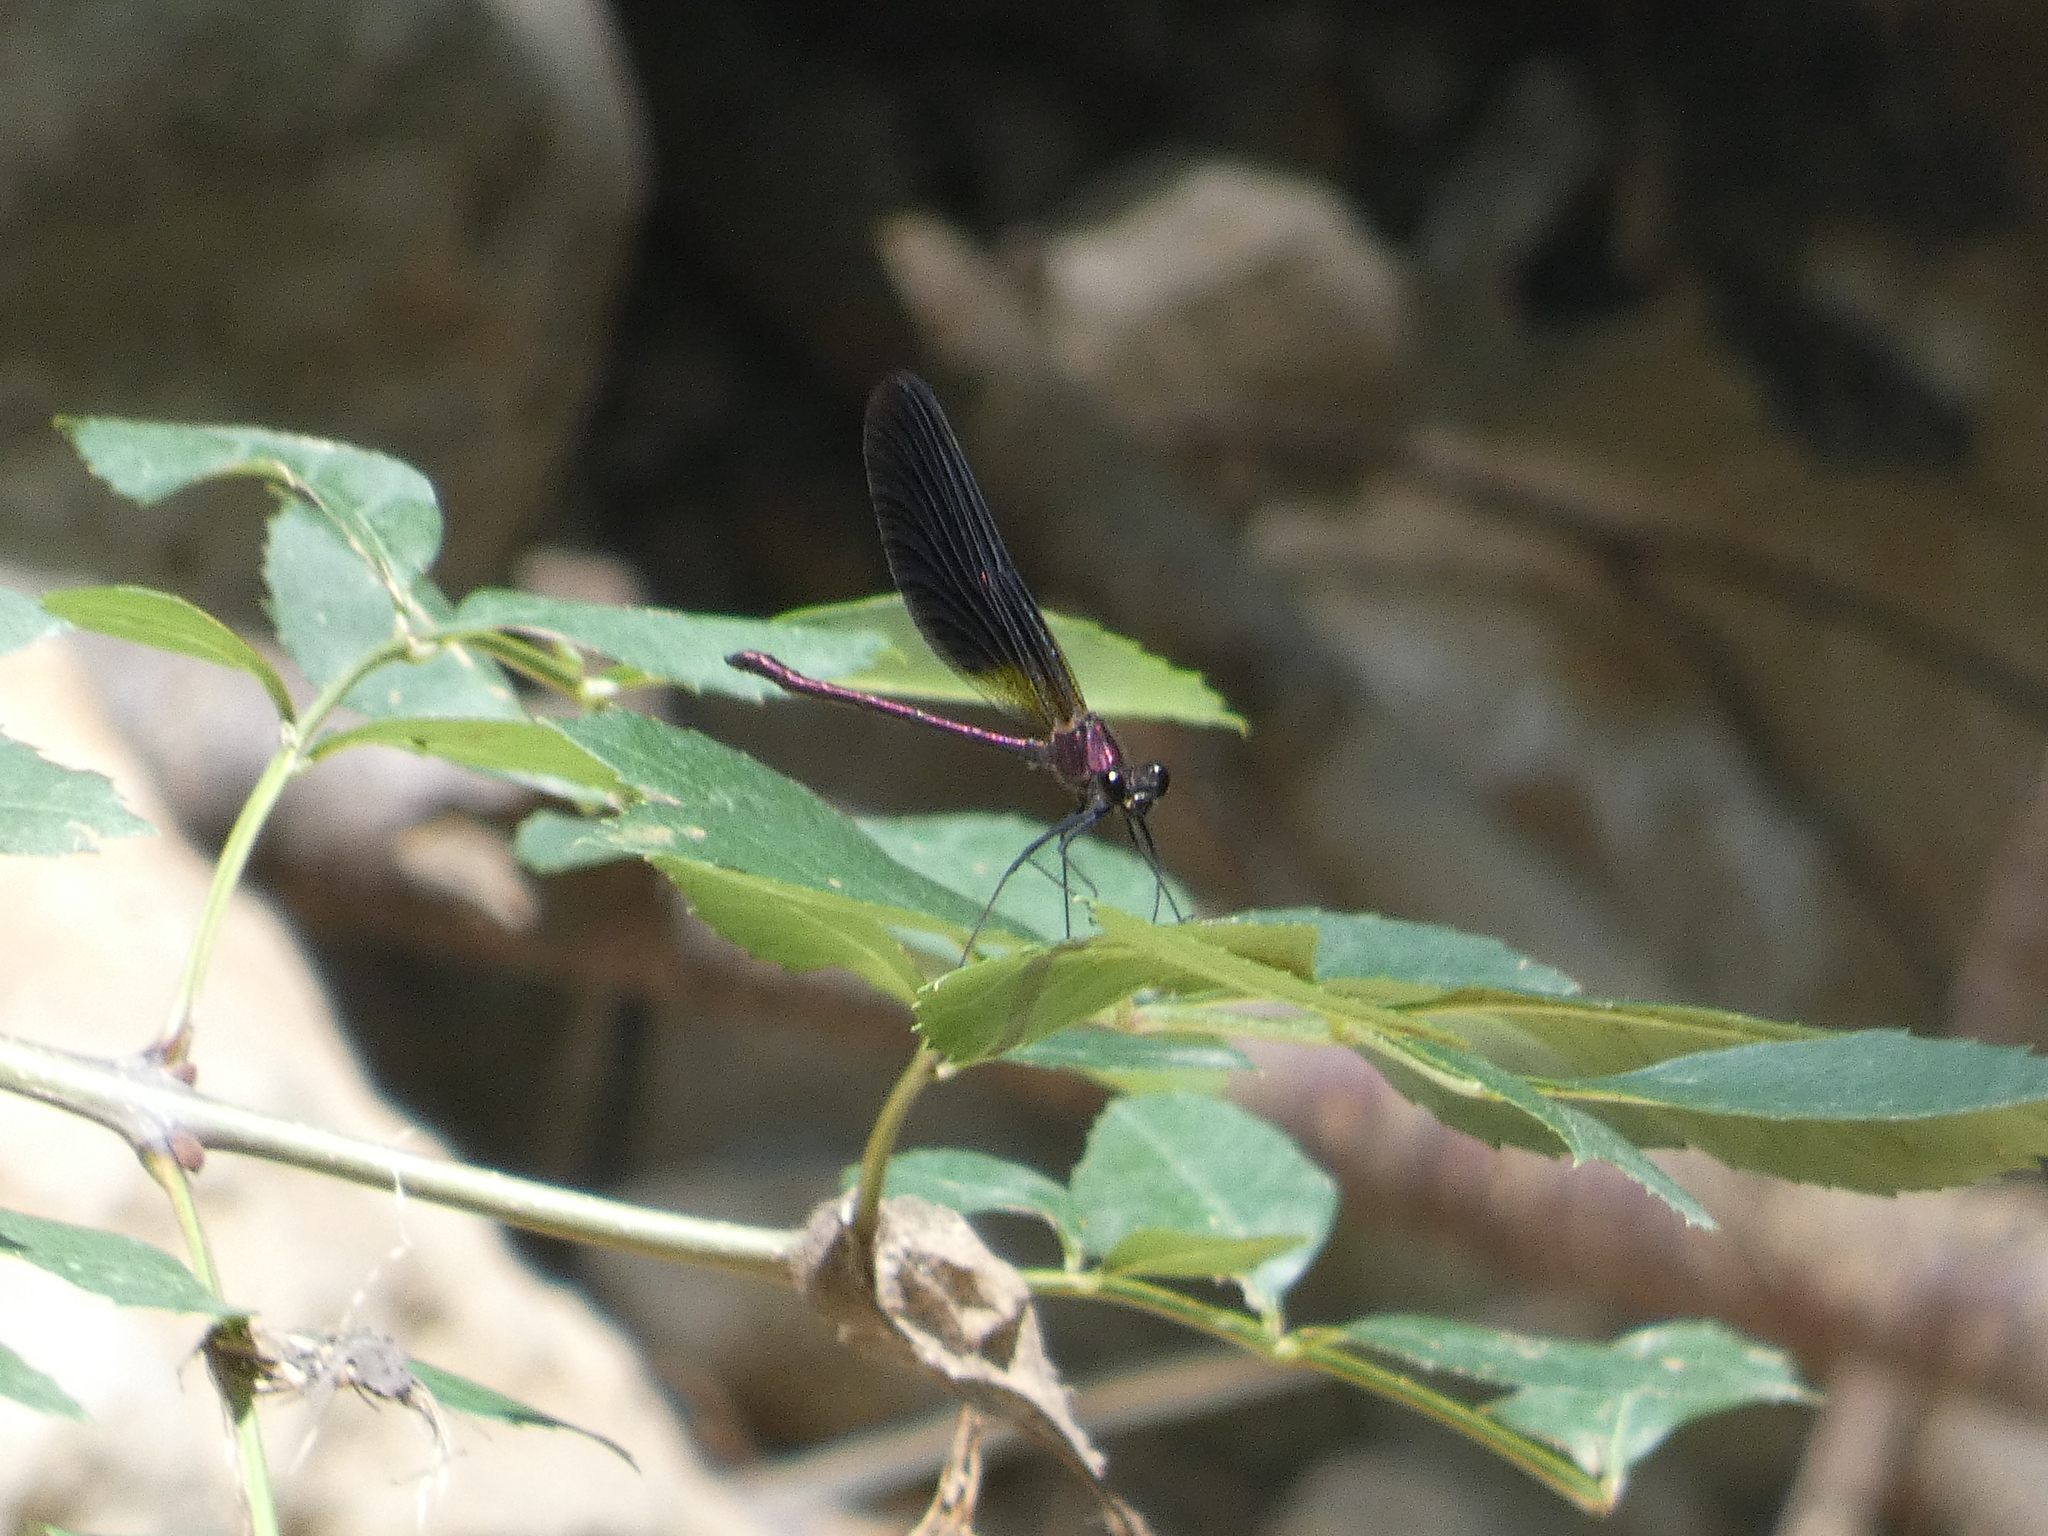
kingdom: Animalia
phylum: Arthropoda
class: Insecta
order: Odonata
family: Calopterygidae
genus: Calopteryx
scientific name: Calopteryx haemorrhoidalis
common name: Copper demoiselle
